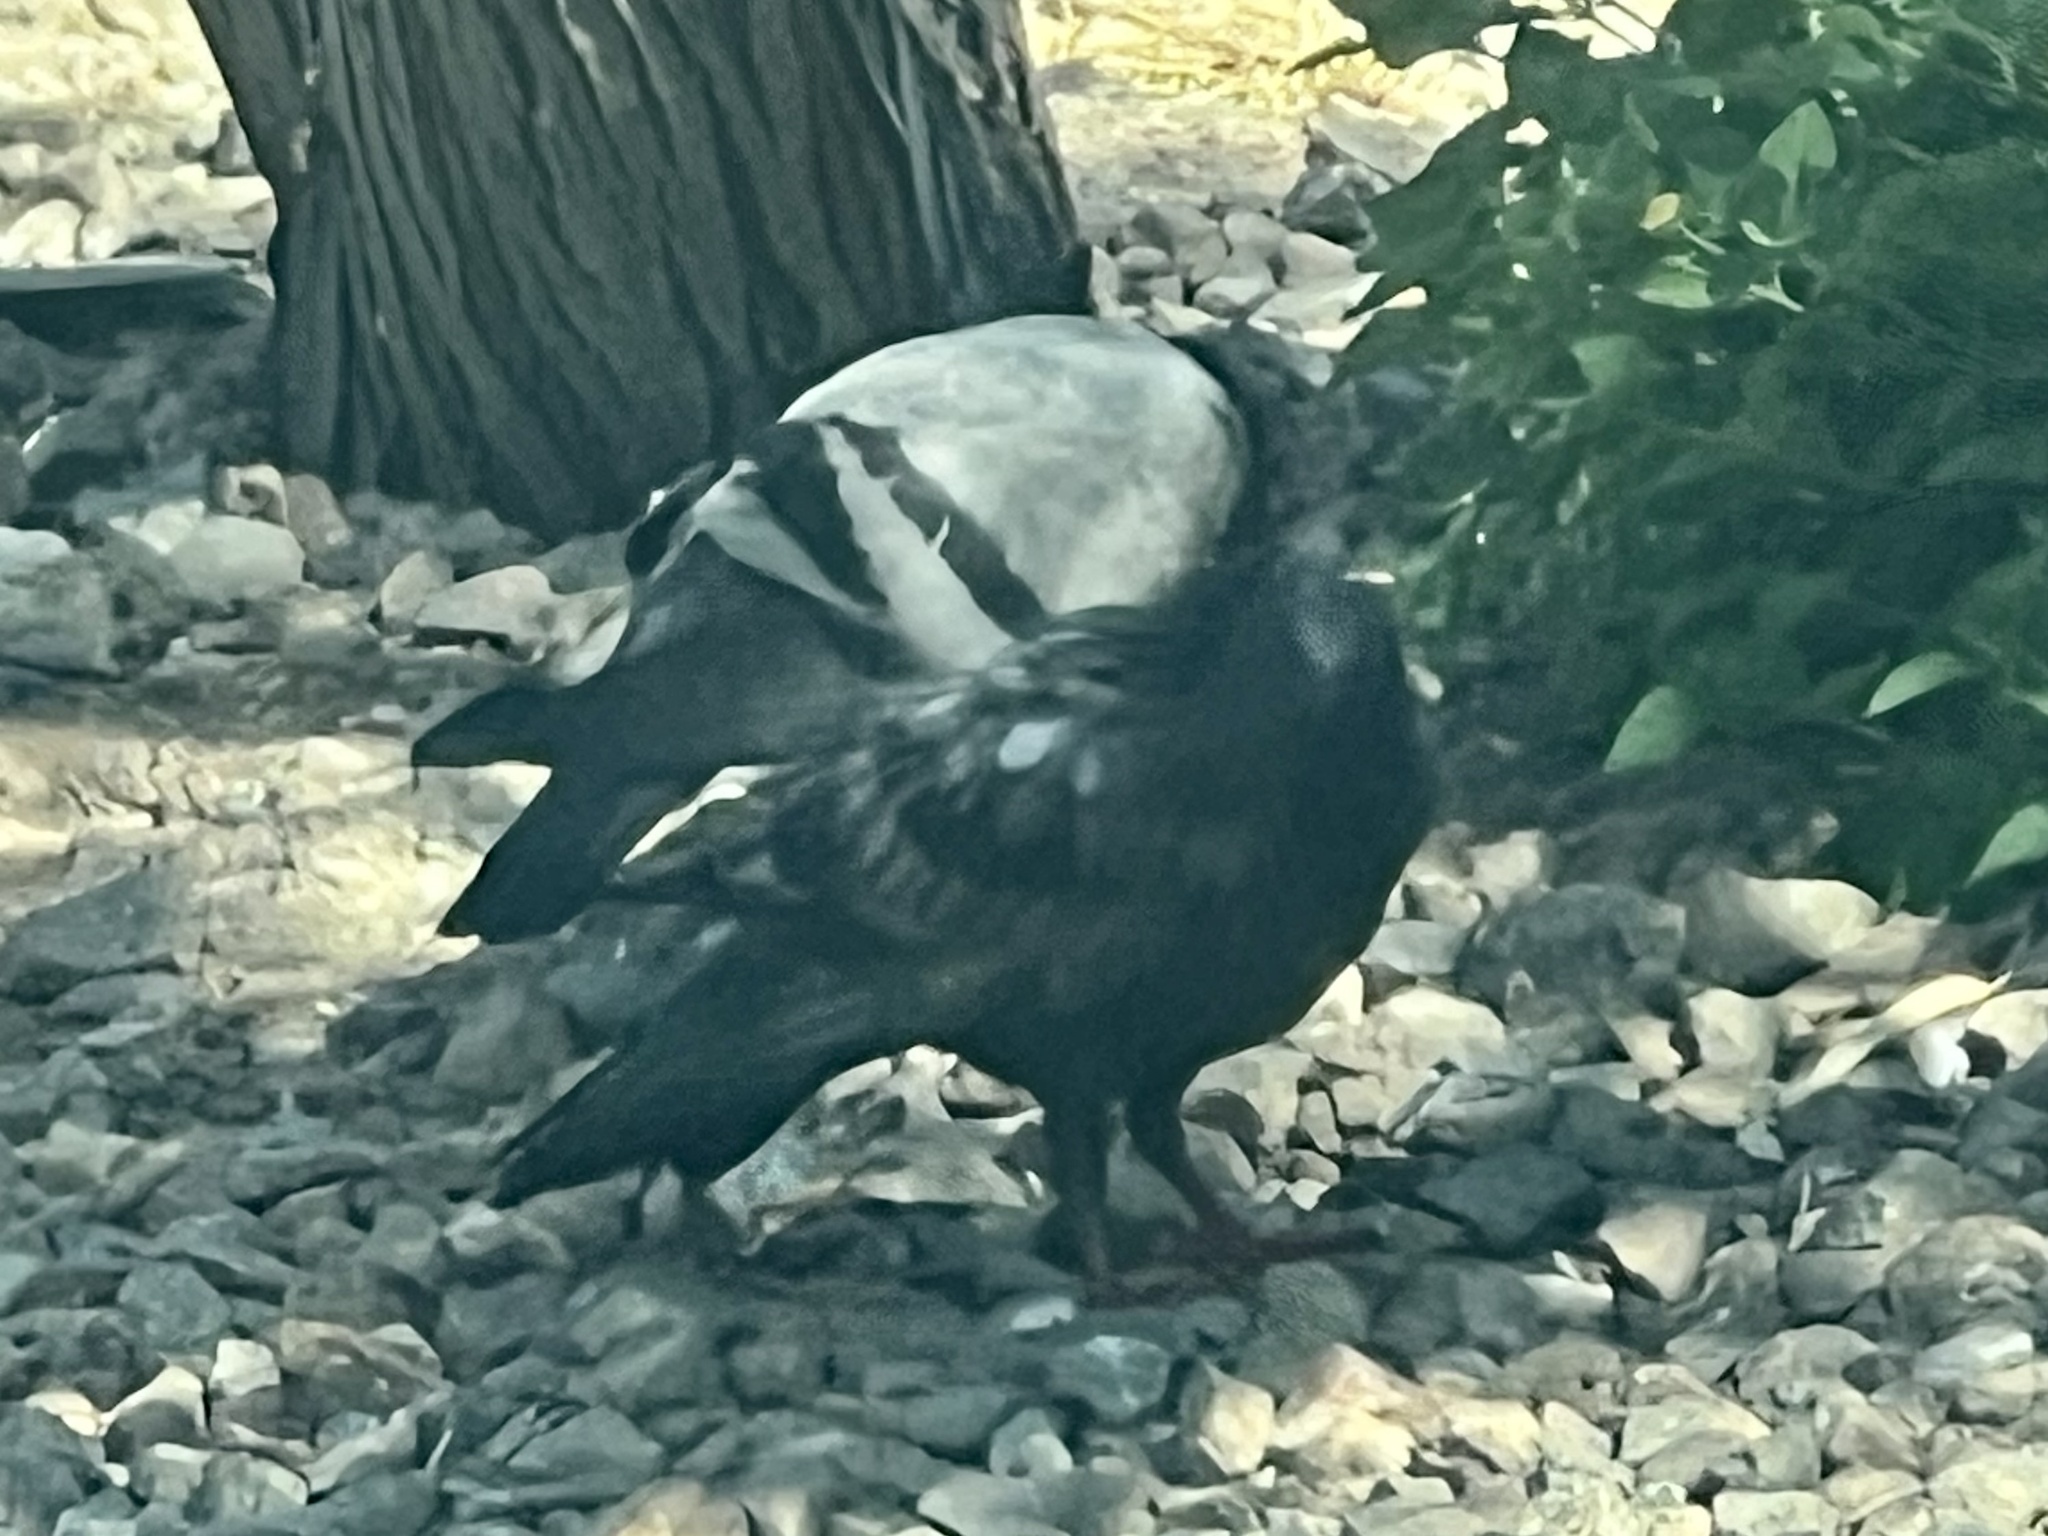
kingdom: Animalia
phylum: Chordata
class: Aves
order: Columbiformes
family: Columbidae
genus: Columba
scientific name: Columba livia
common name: Rock pigeon
